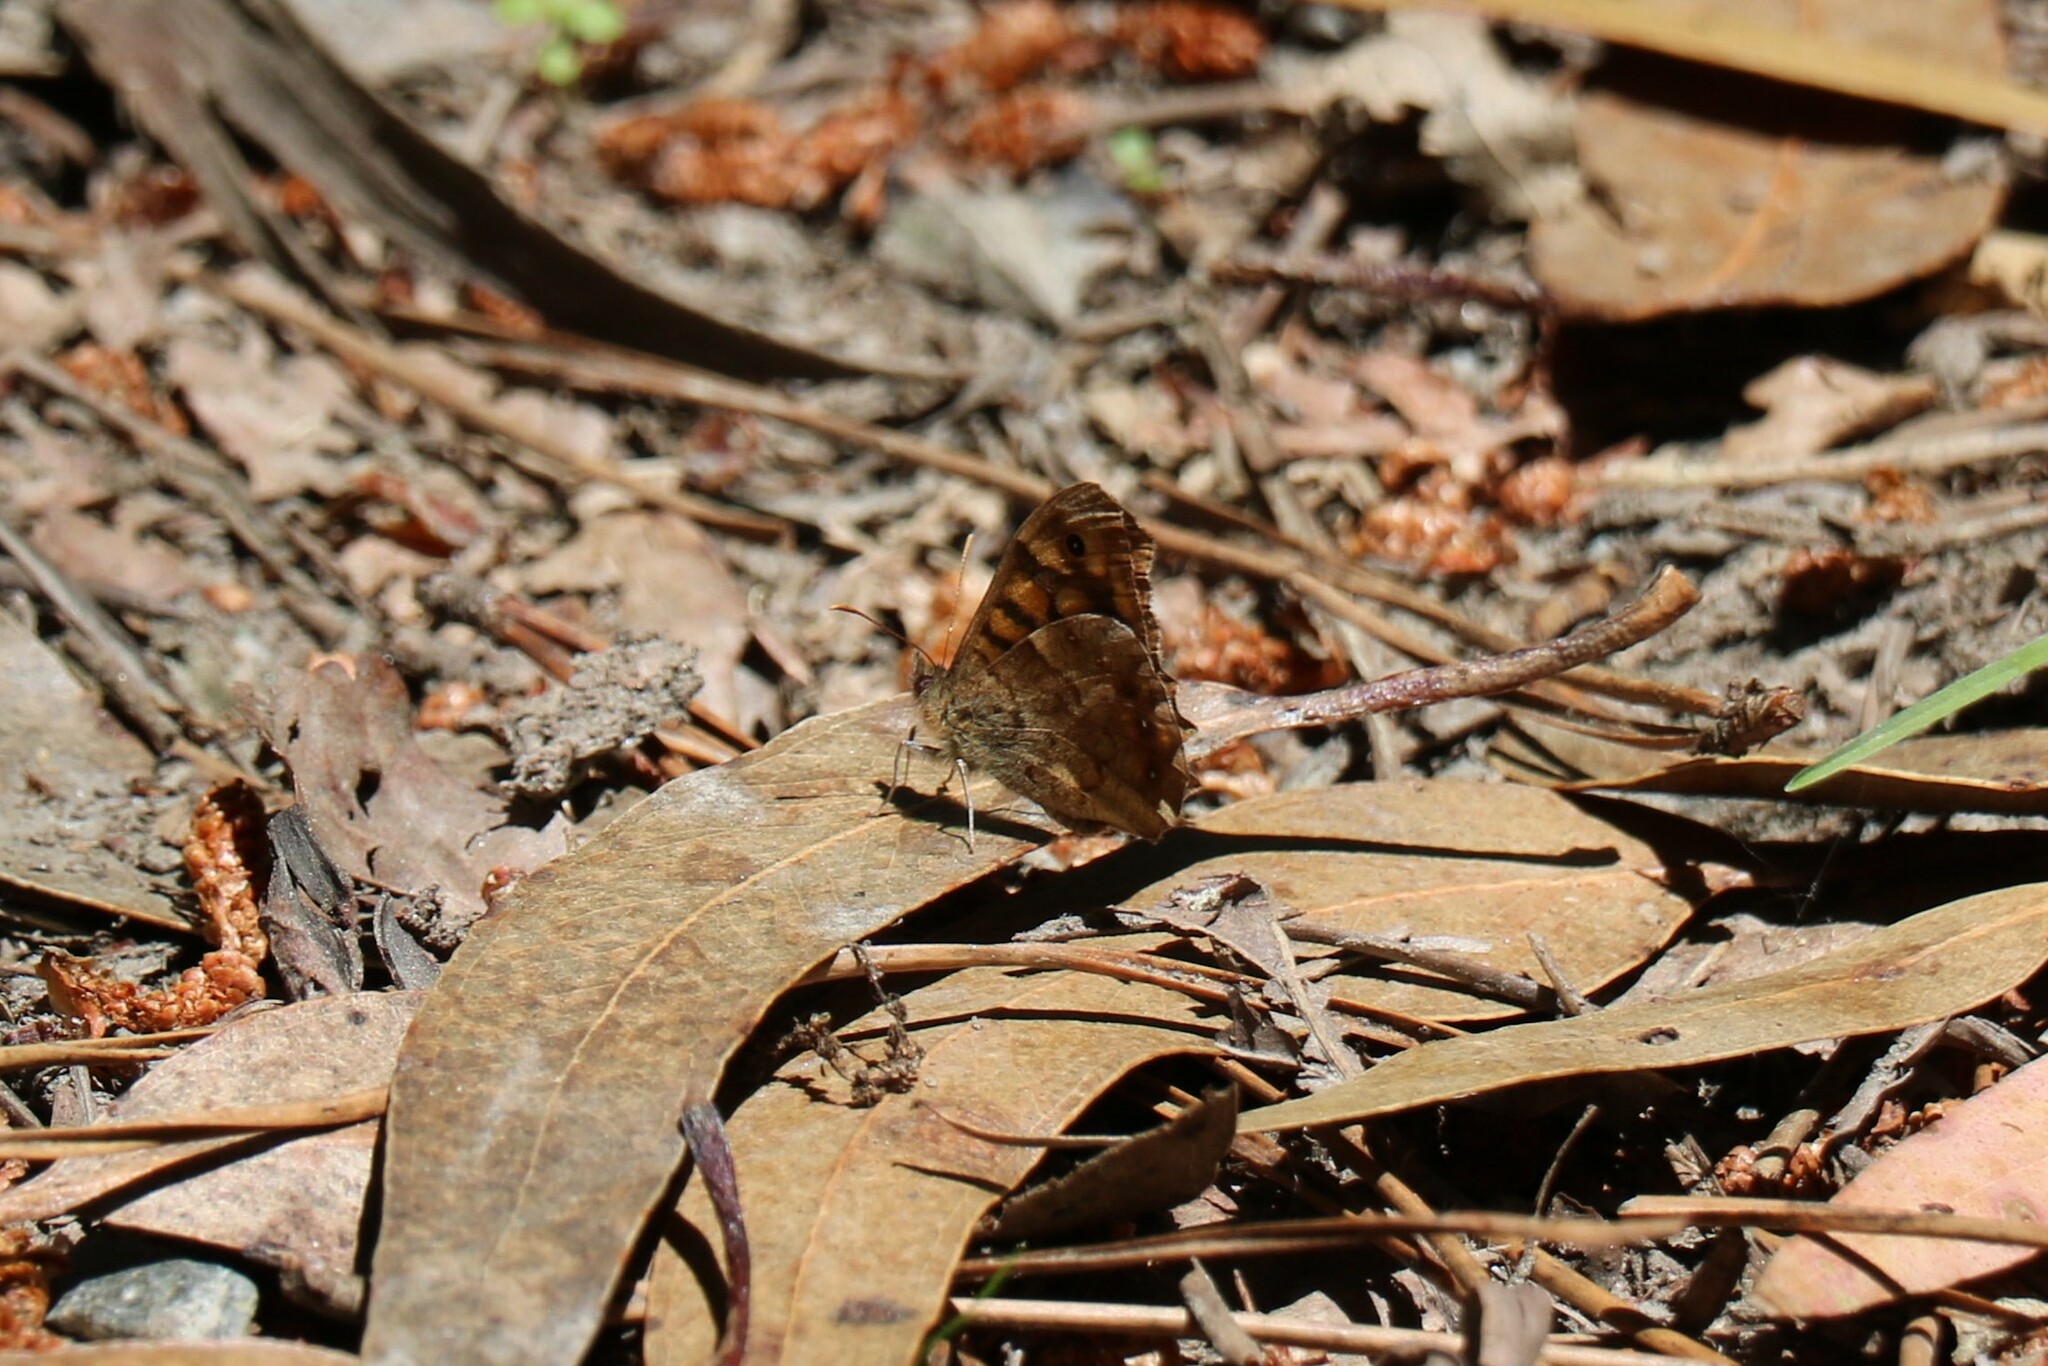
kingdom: Animalia
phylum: Arthropoda
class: Insecta
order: Lepidoptera
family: Nymphalidae
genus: Pararge
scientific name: Pararge aegeria
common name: Speckled wood
